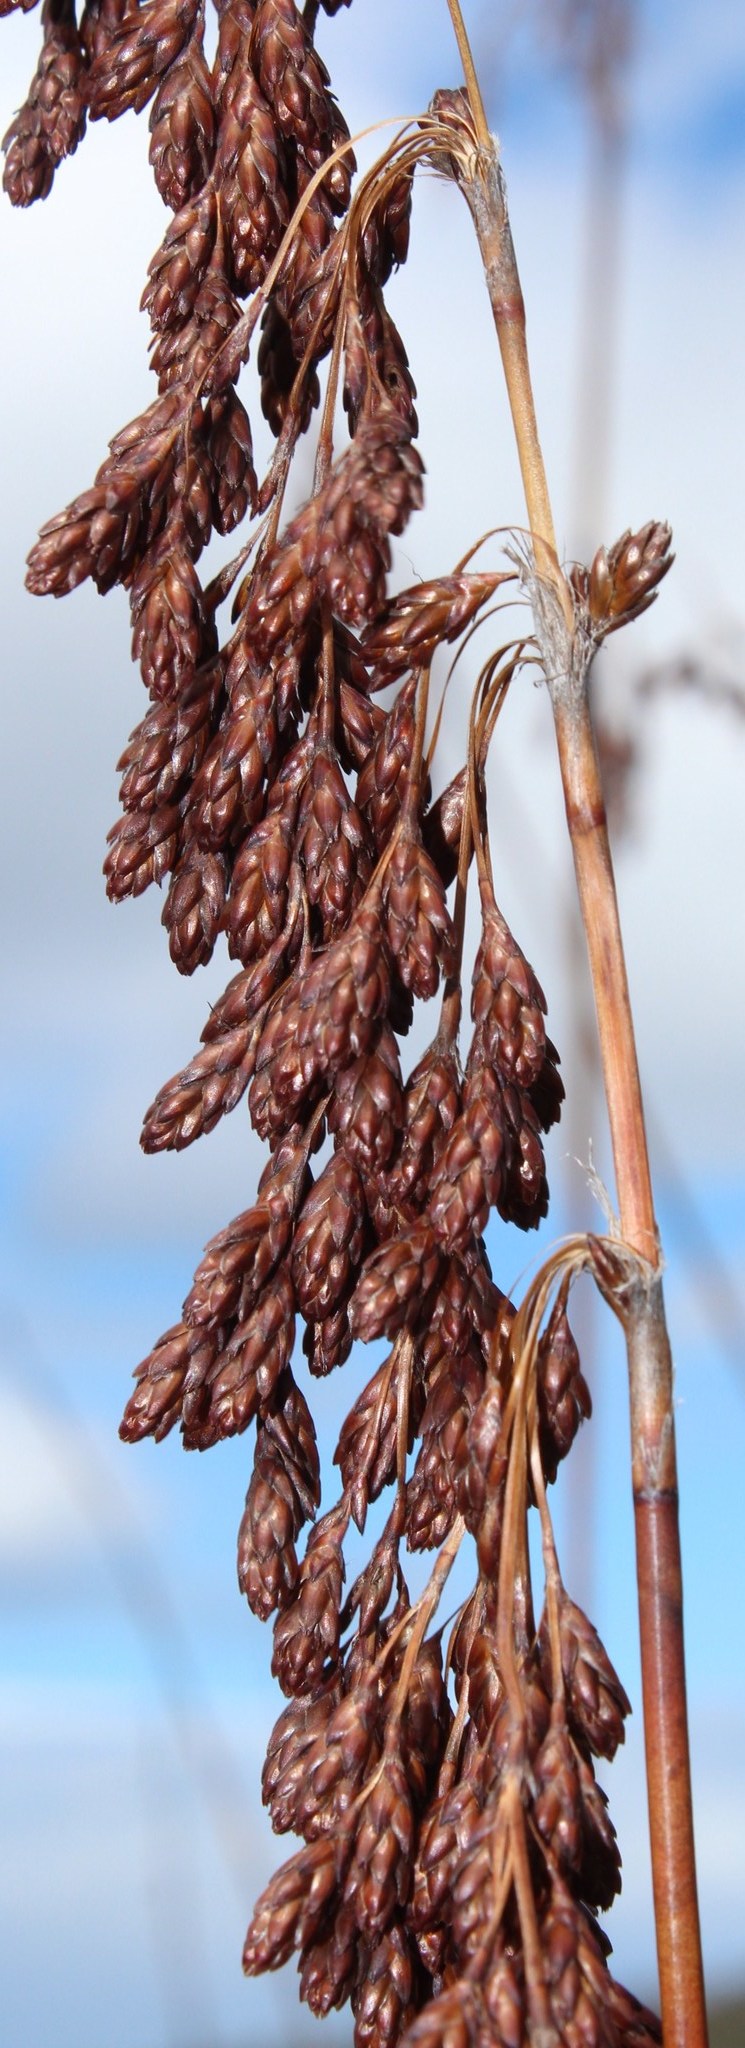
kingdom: Plantae
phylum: Tracheophyta
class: Liliopsida
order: Poales
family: Restionaceae
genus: Rhodocoma
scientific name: Rhodocoma gigantea
